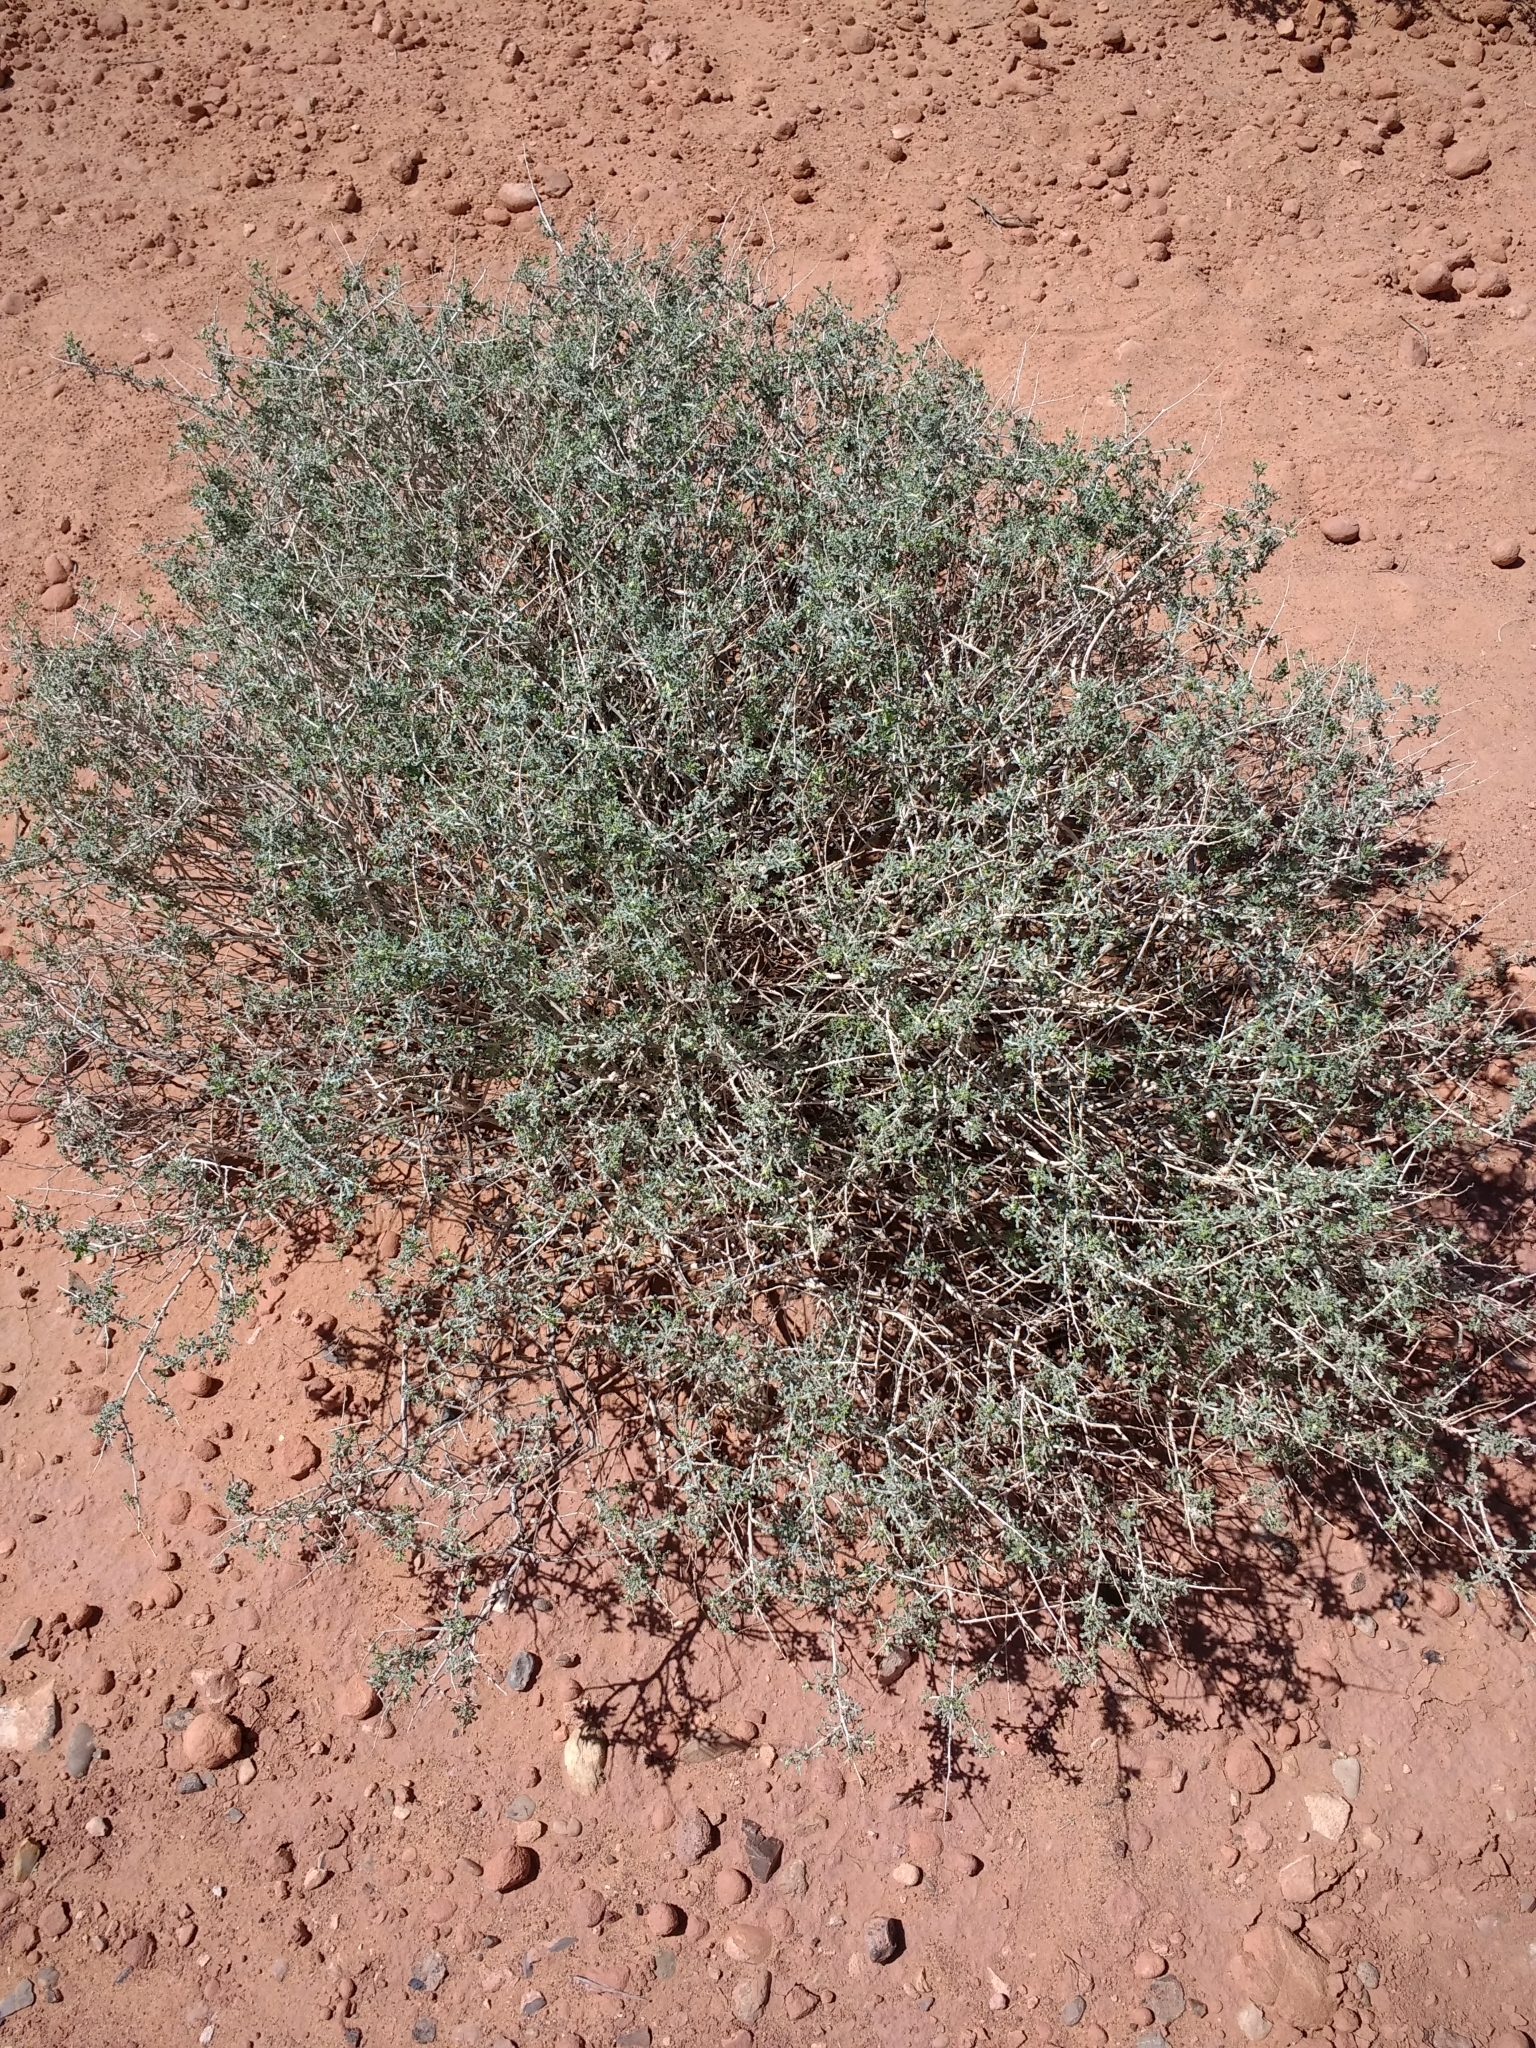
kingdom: Plantae
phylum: Tracheophyta
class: Magnoliopsida
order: Asterales
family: Asteraceae
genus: Ambrosia
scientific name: Ambrosia dumosa
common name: Bur-sage
